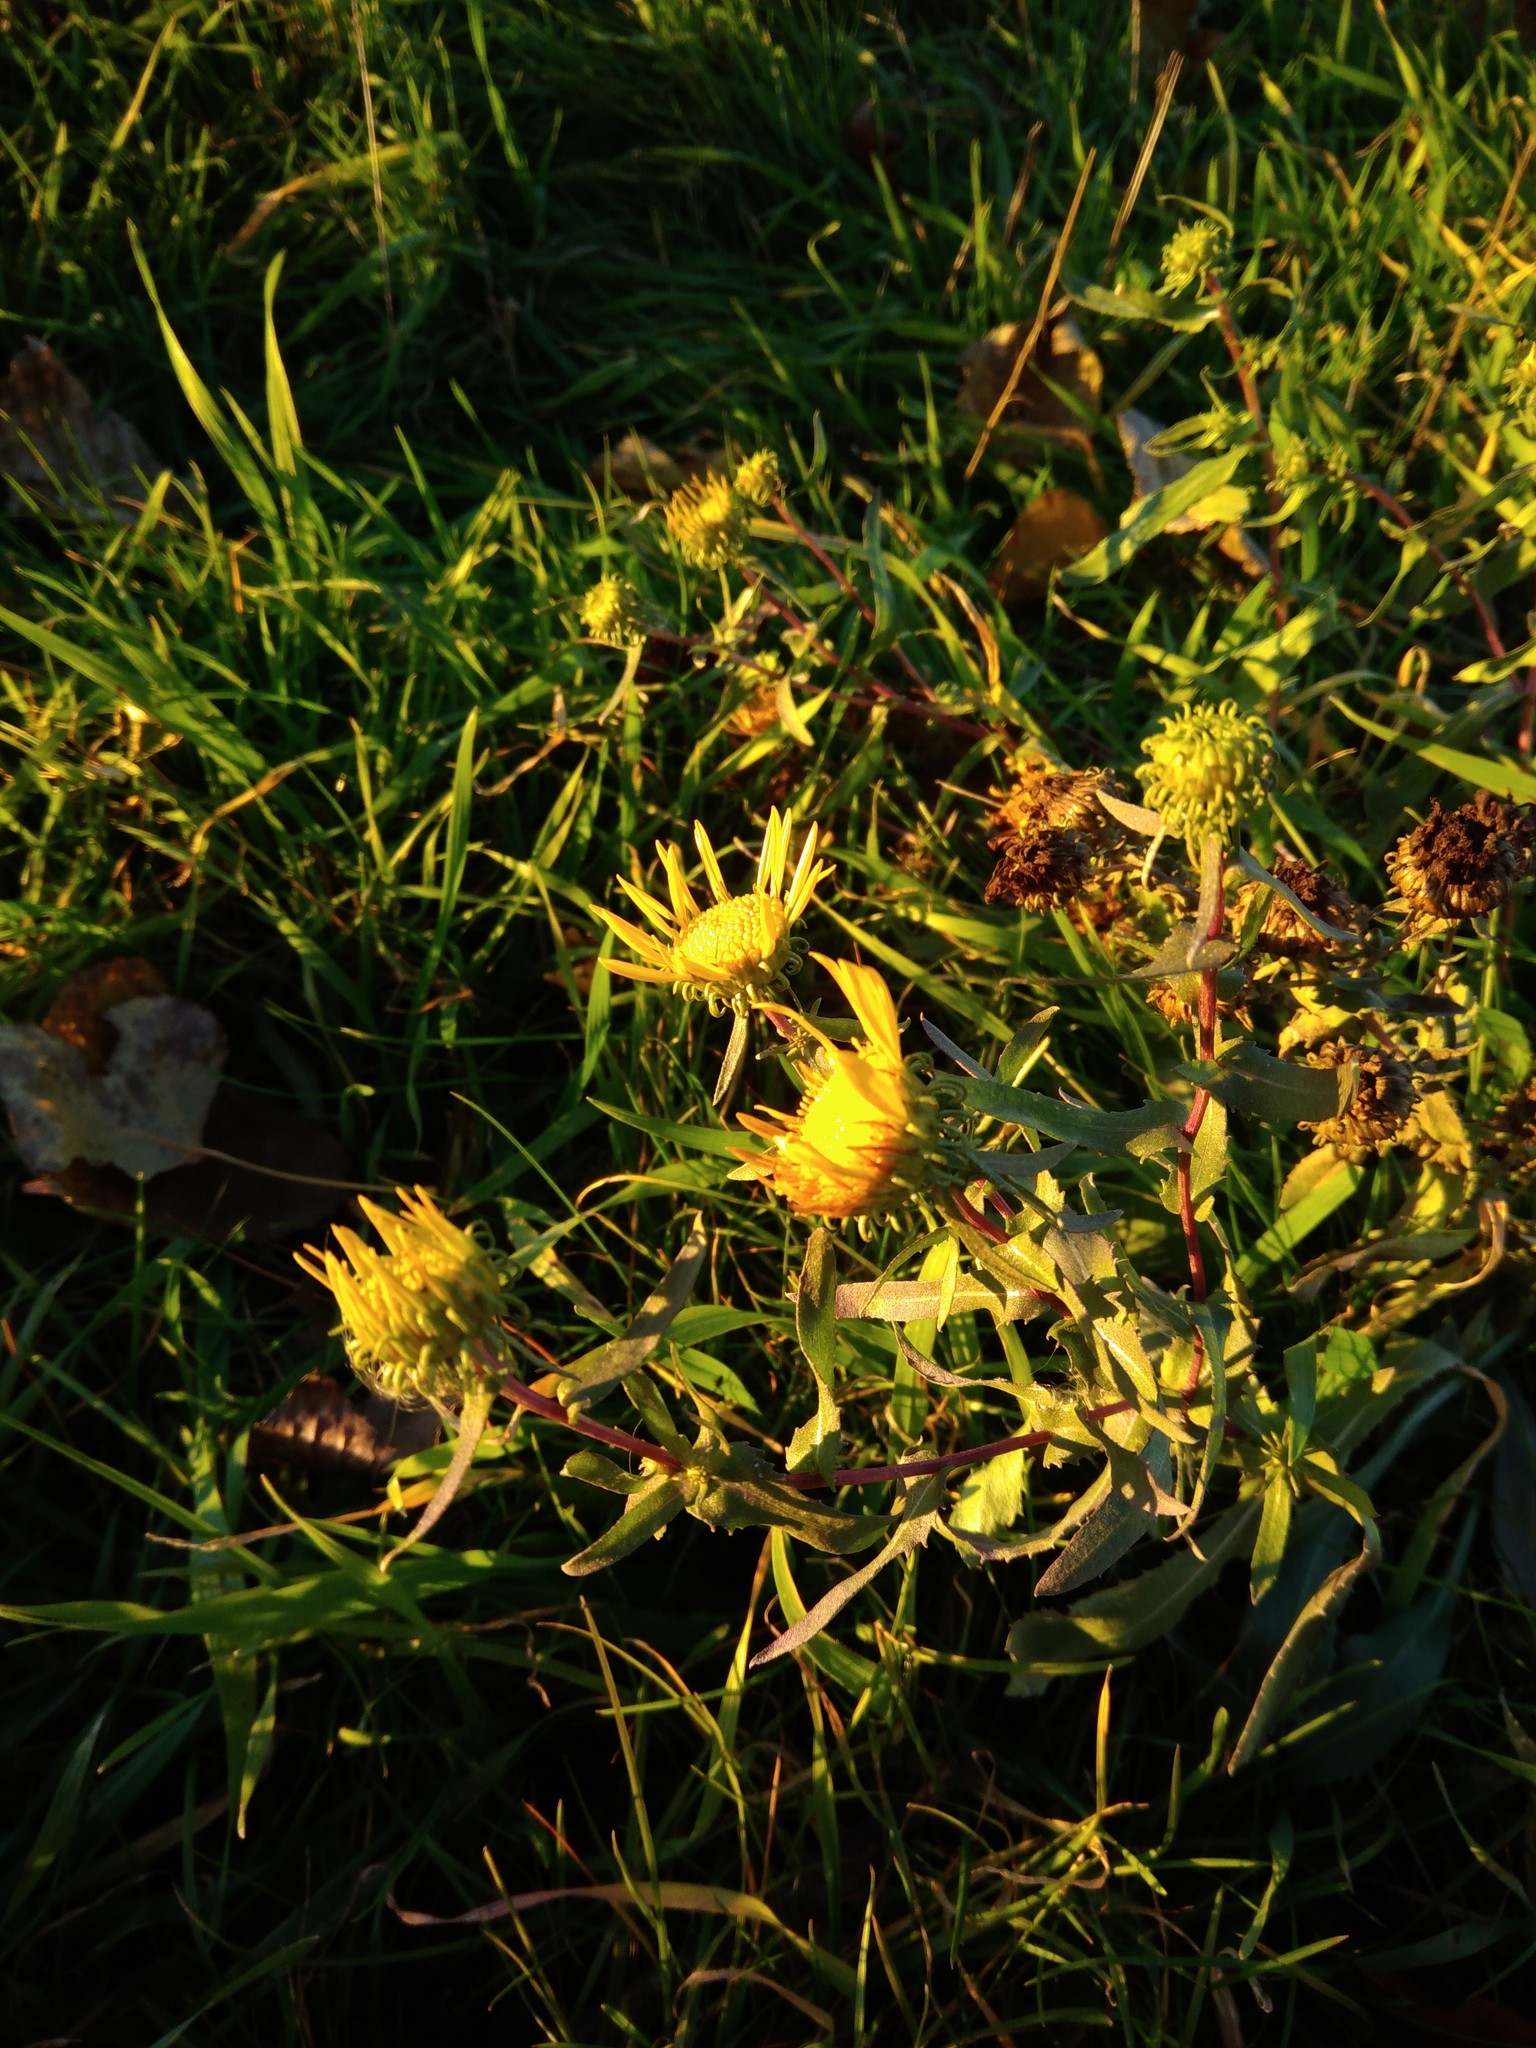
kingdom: Plantae
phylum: Tracheophyta
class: Magnoliopsida
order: Asterales
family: Asteraceae
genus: Grindelia
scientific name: Grindelia squarrosa
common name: Curly-cup gumweed
